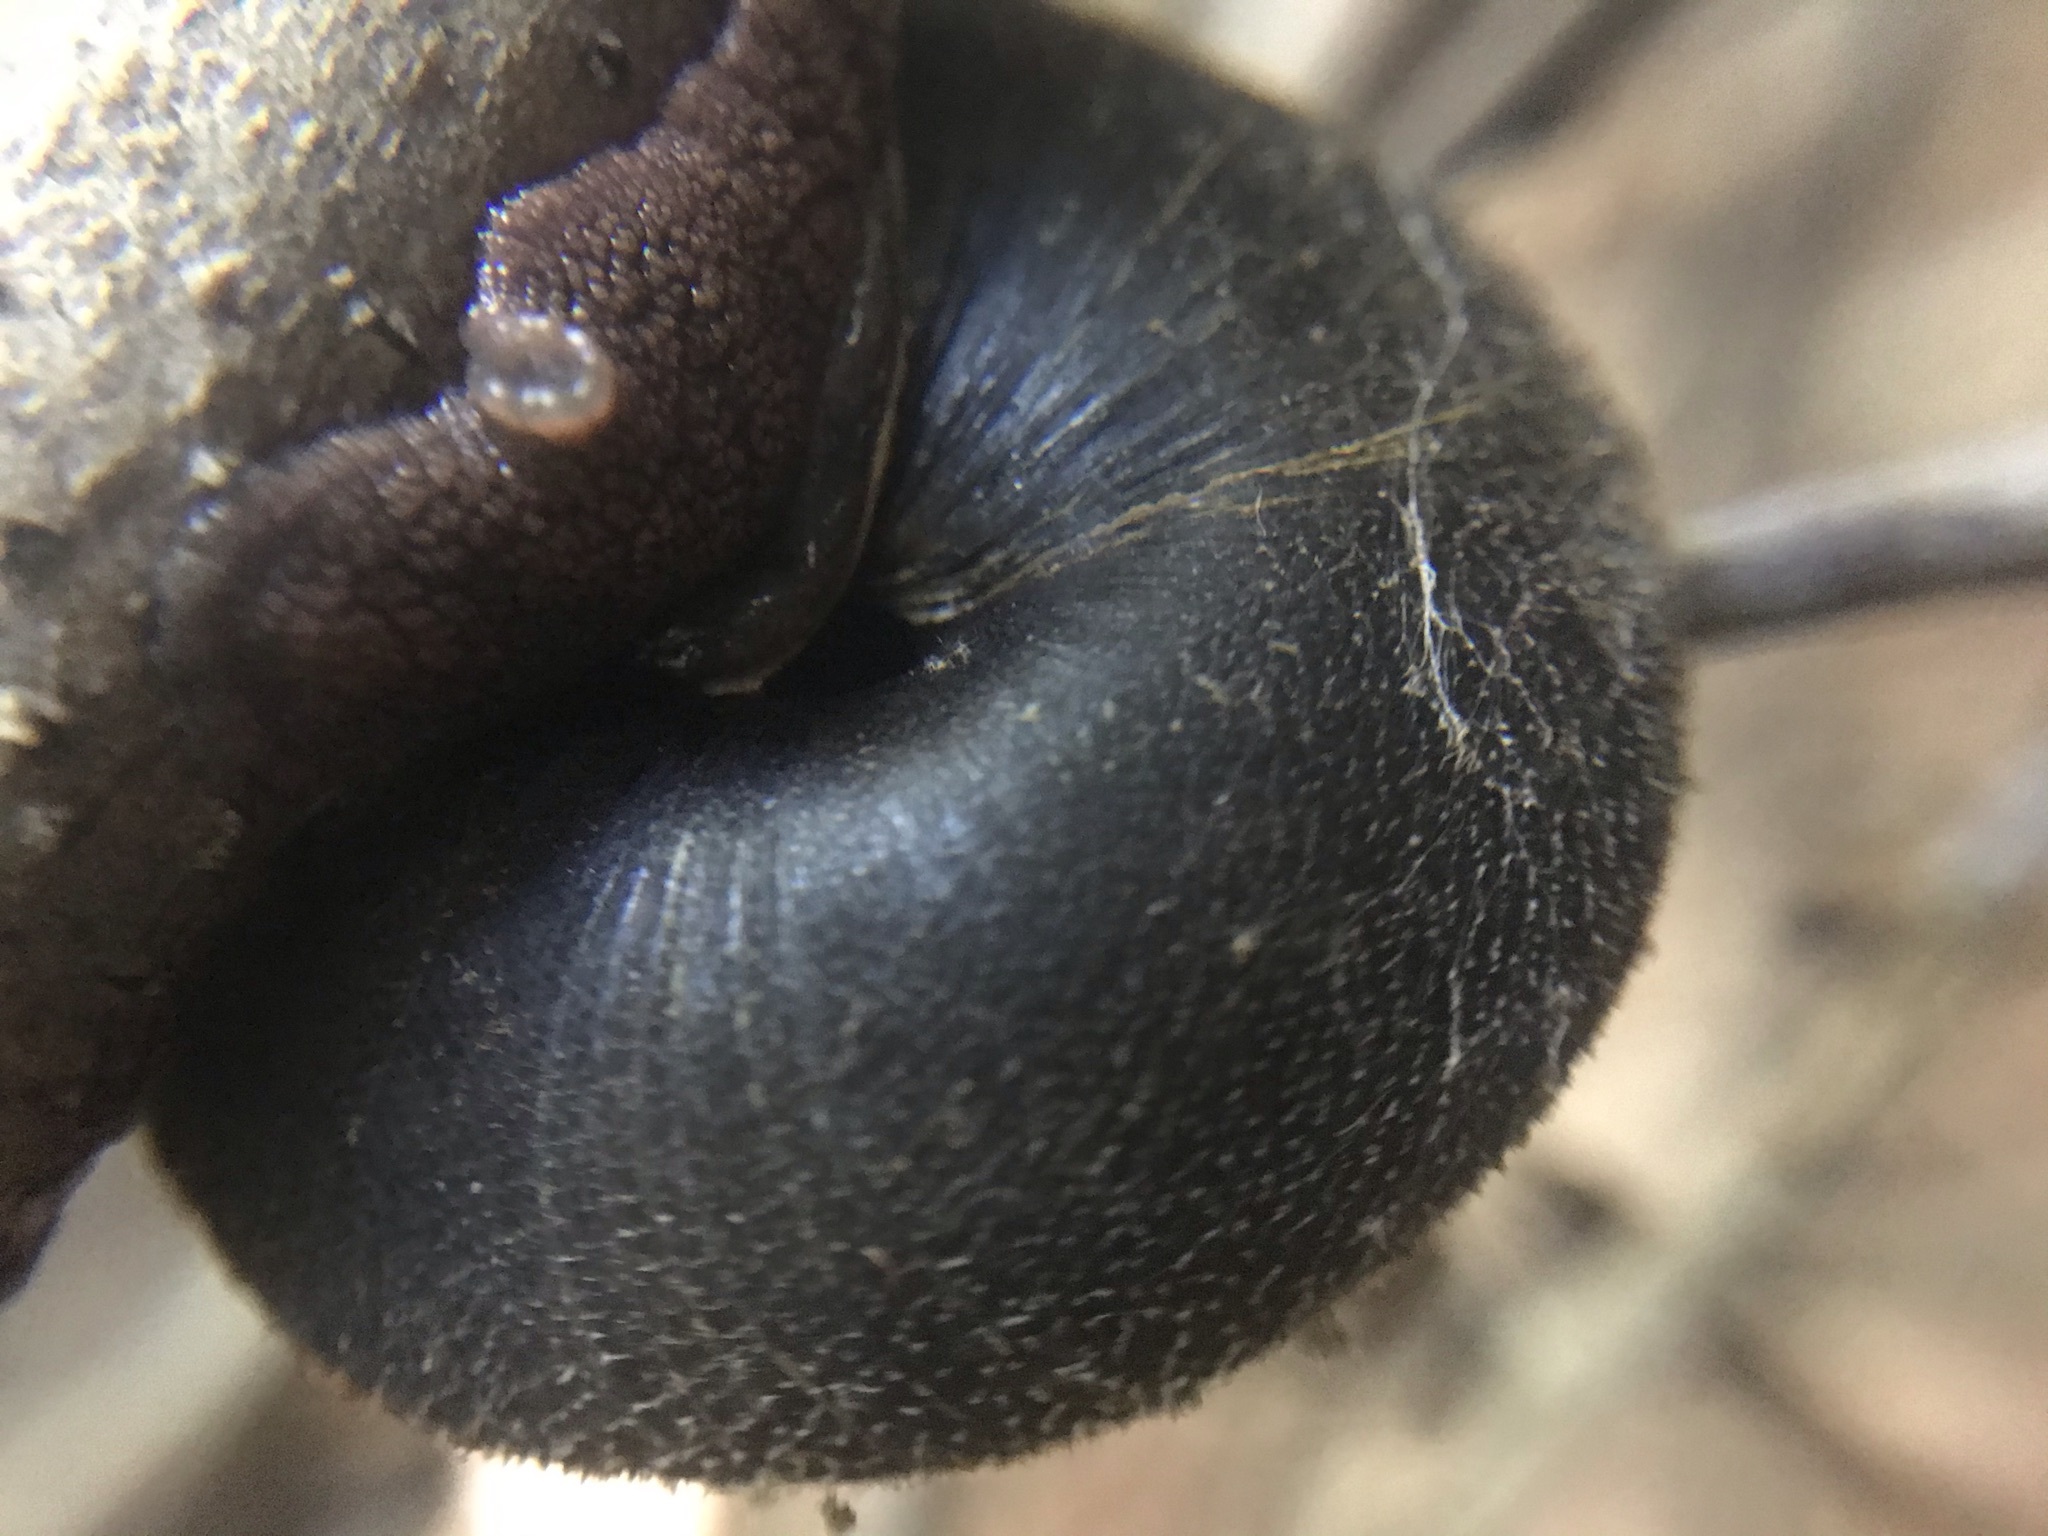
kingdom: Animalia
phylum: Mollusca
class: Gastropoda
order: Stylommatophora
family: Xanthonychidae
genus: Monadenia
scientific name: Monadenia infumata
